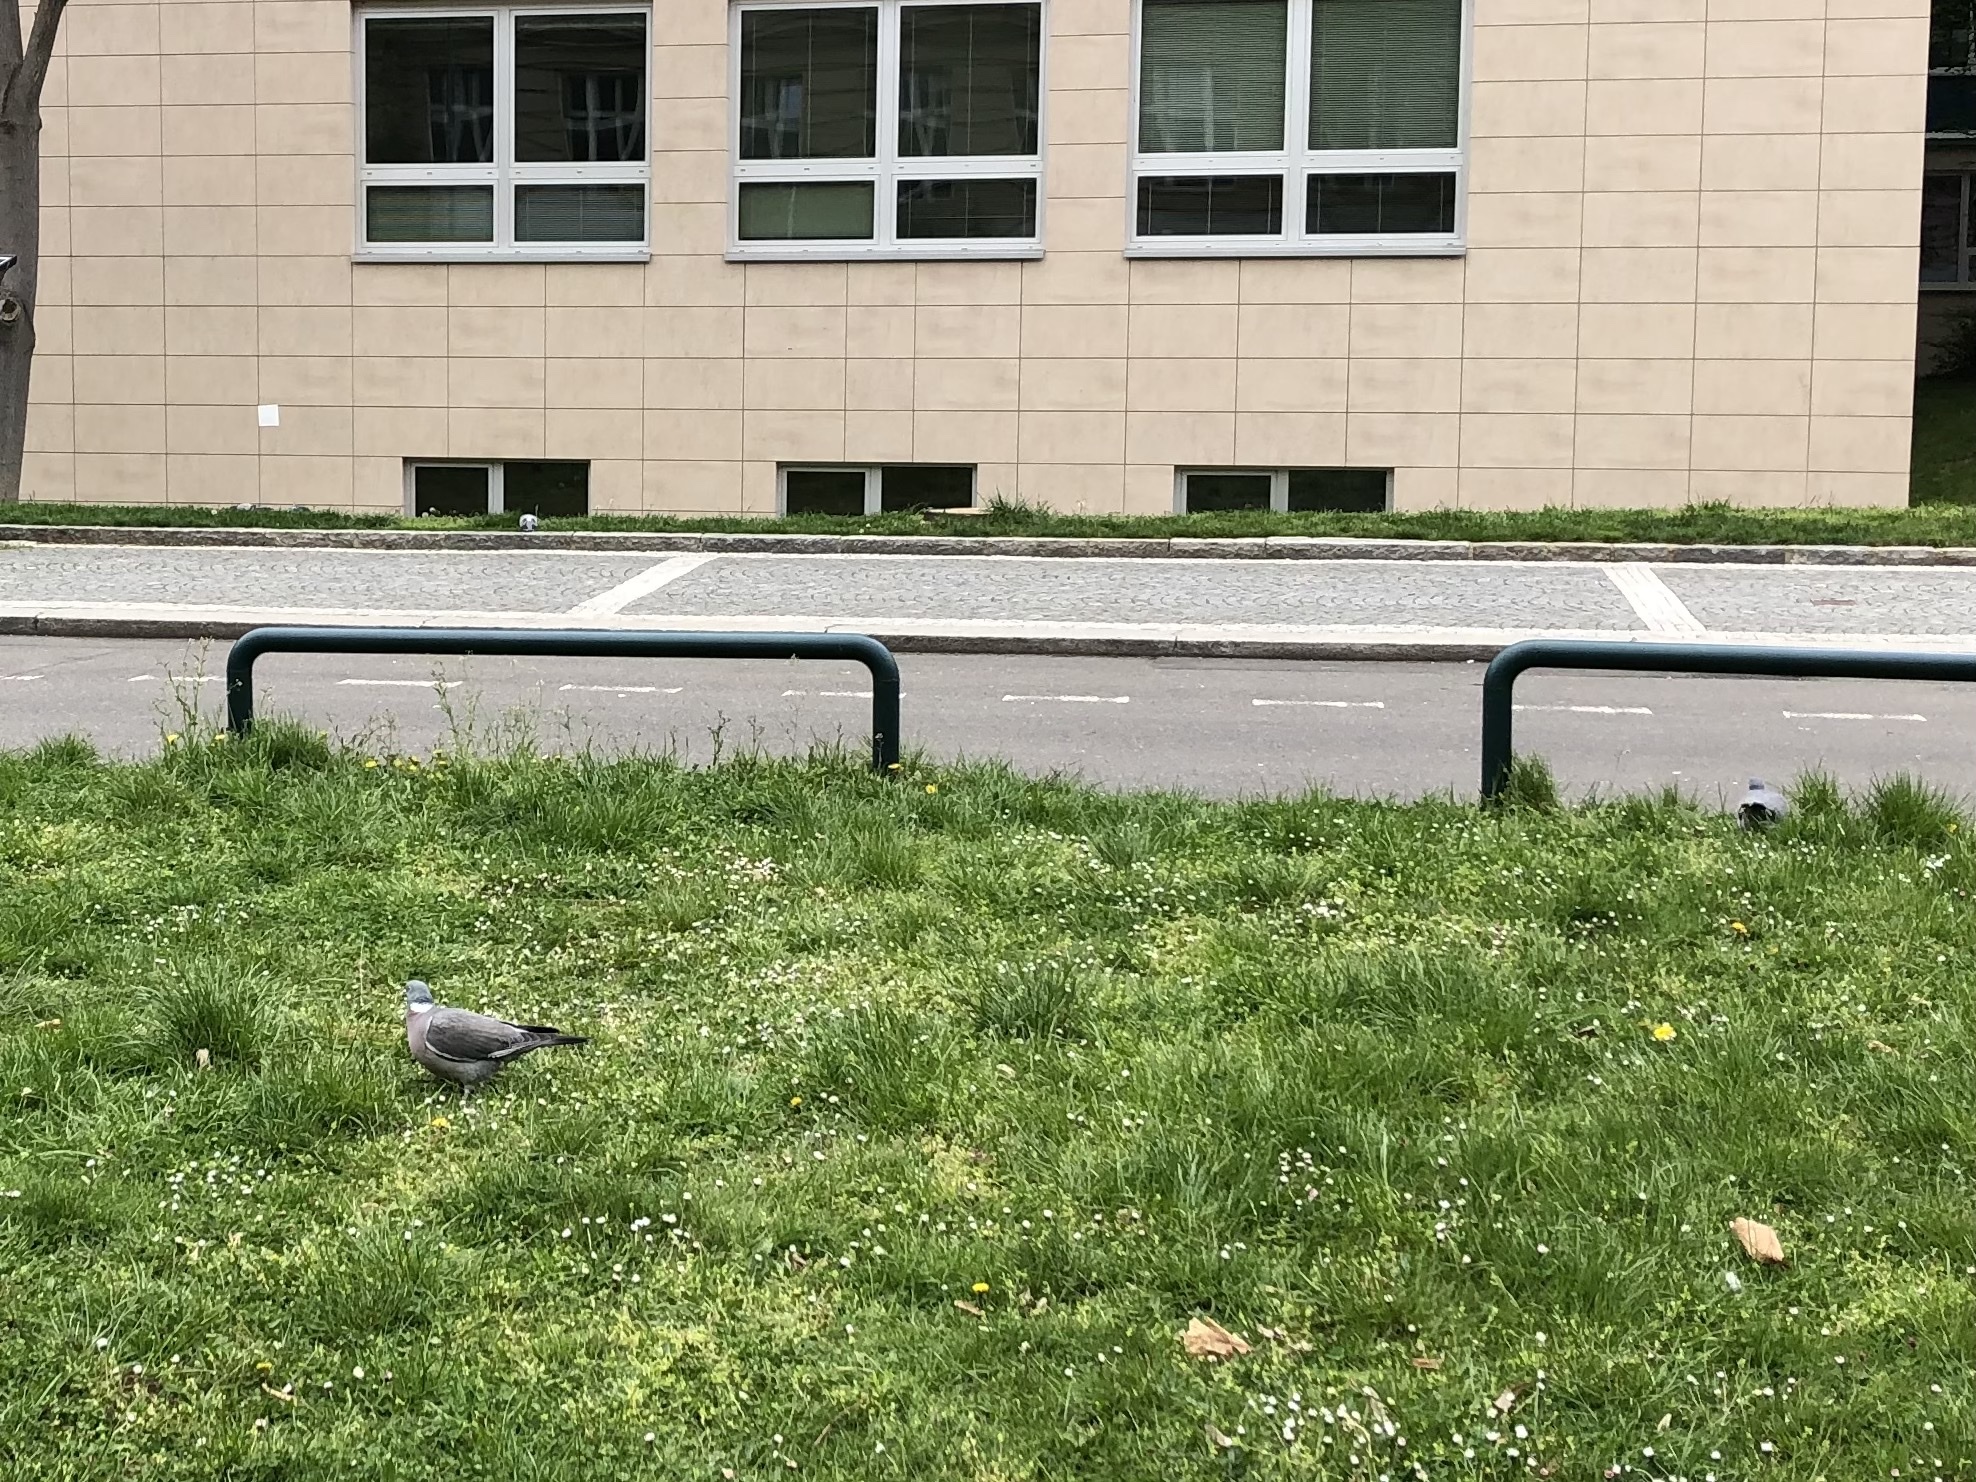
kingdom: Animalia
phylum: Chordata
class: Aves
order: Columbiformes
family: Columbidae
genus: Columba
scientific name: Columba palumbus
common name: Common wood pigeon
